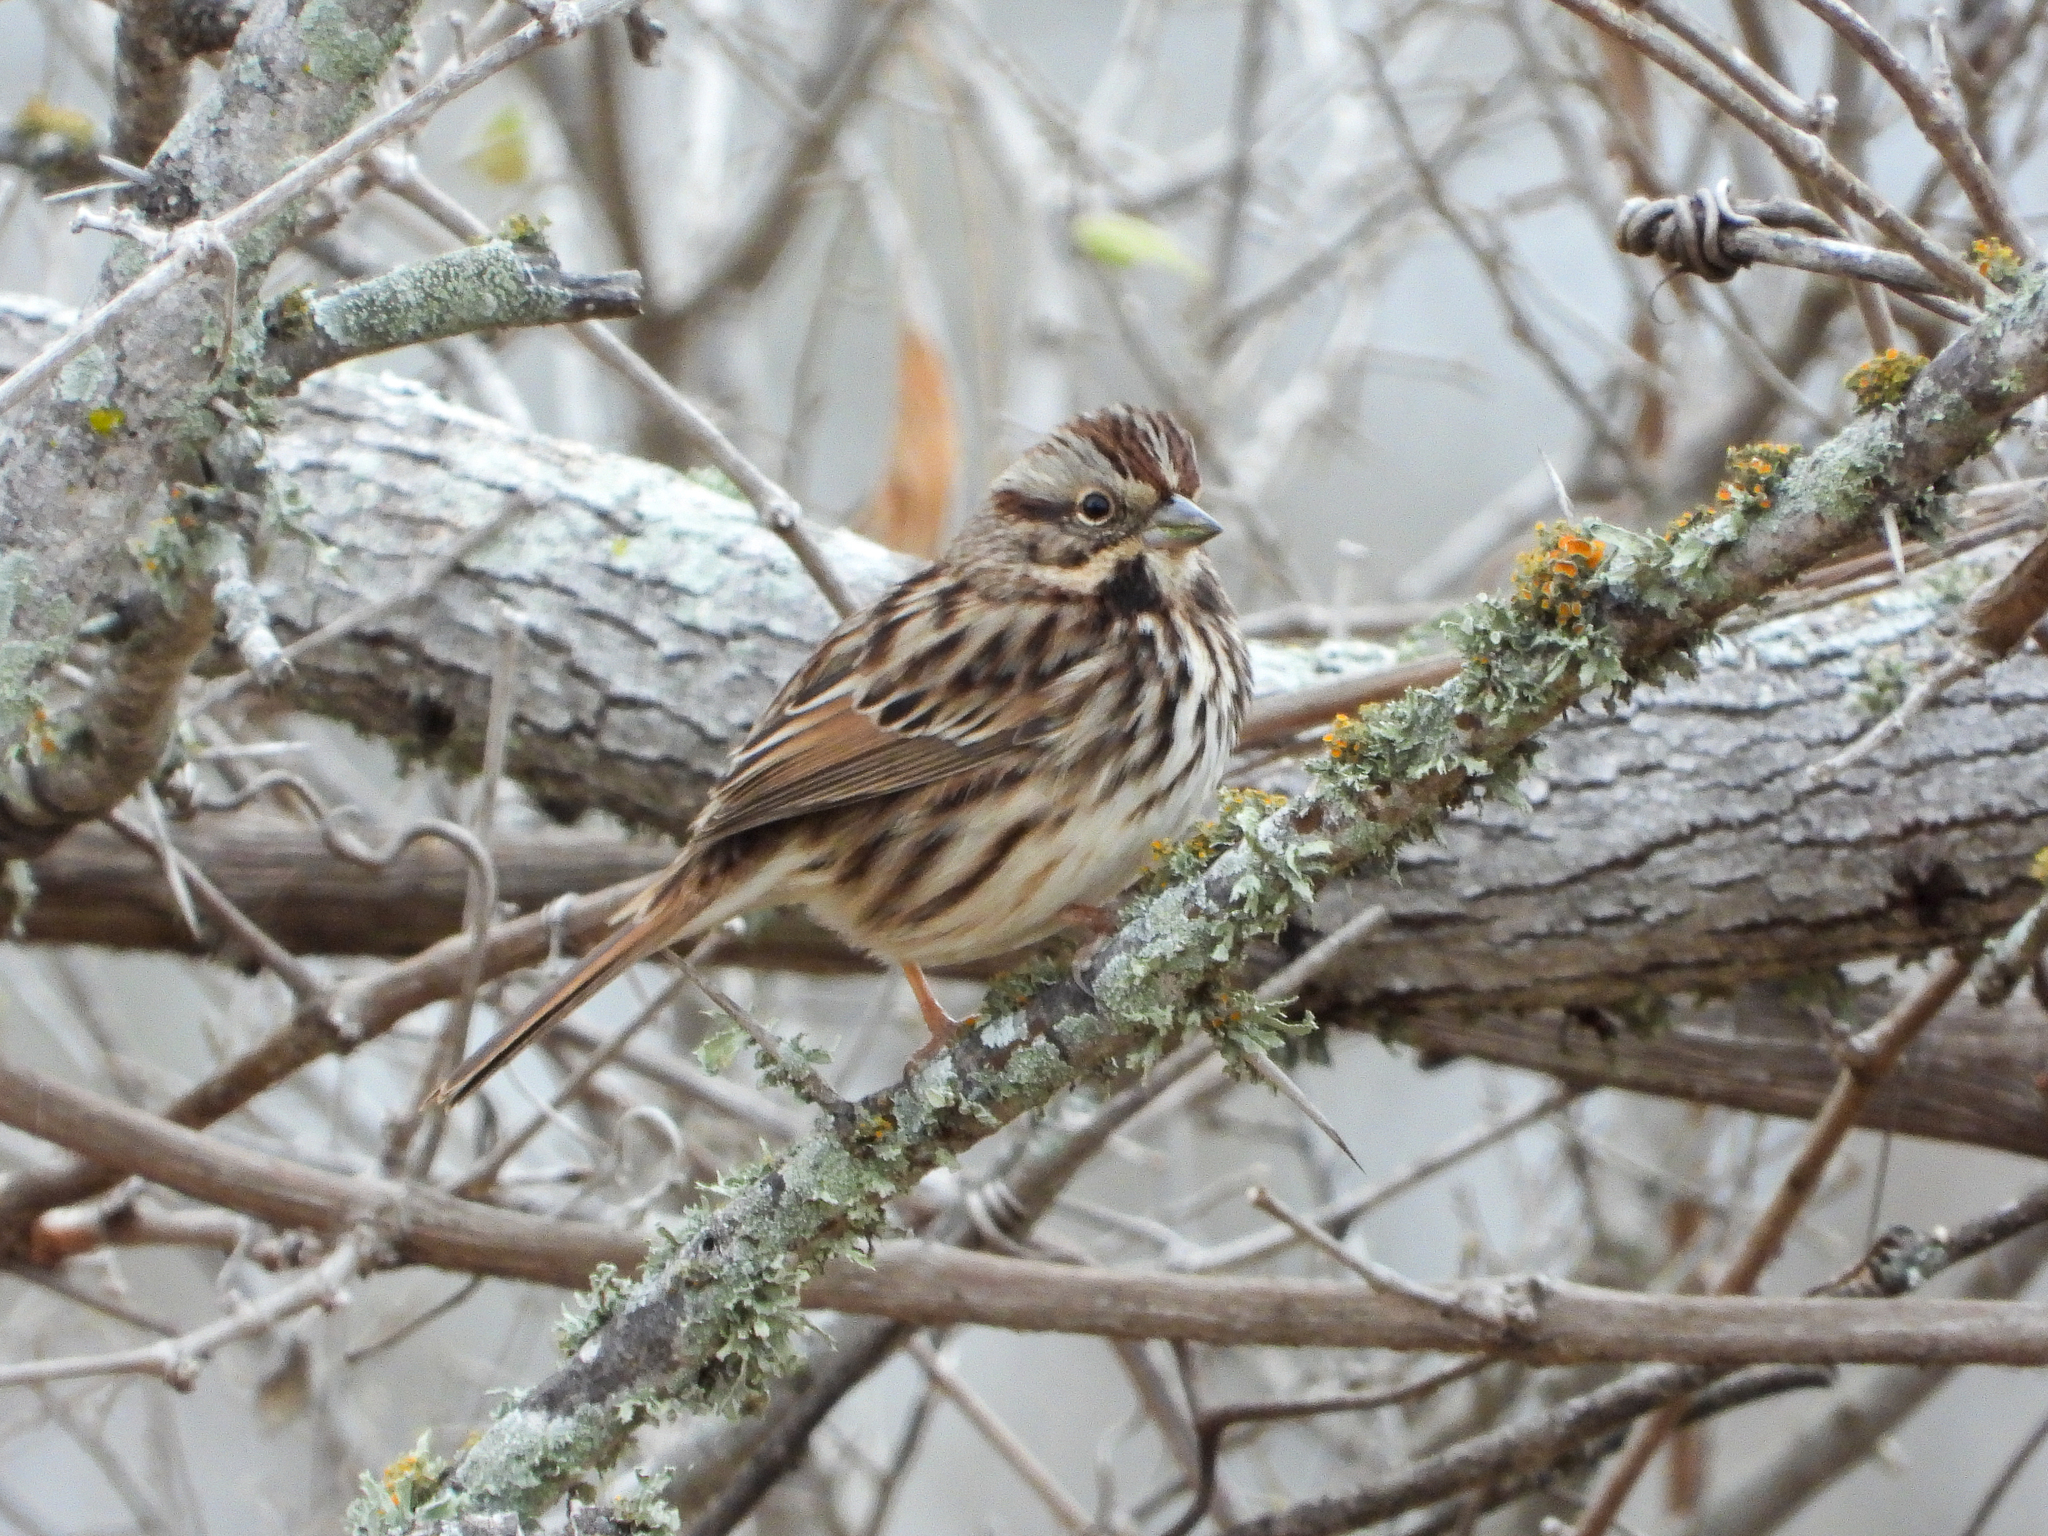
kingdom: Animalia
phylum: Chordata
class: Aves
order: Passeriformes
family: Passerellidae
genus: Melospiza
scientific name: Melospiza melodia
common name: Song sparrow
